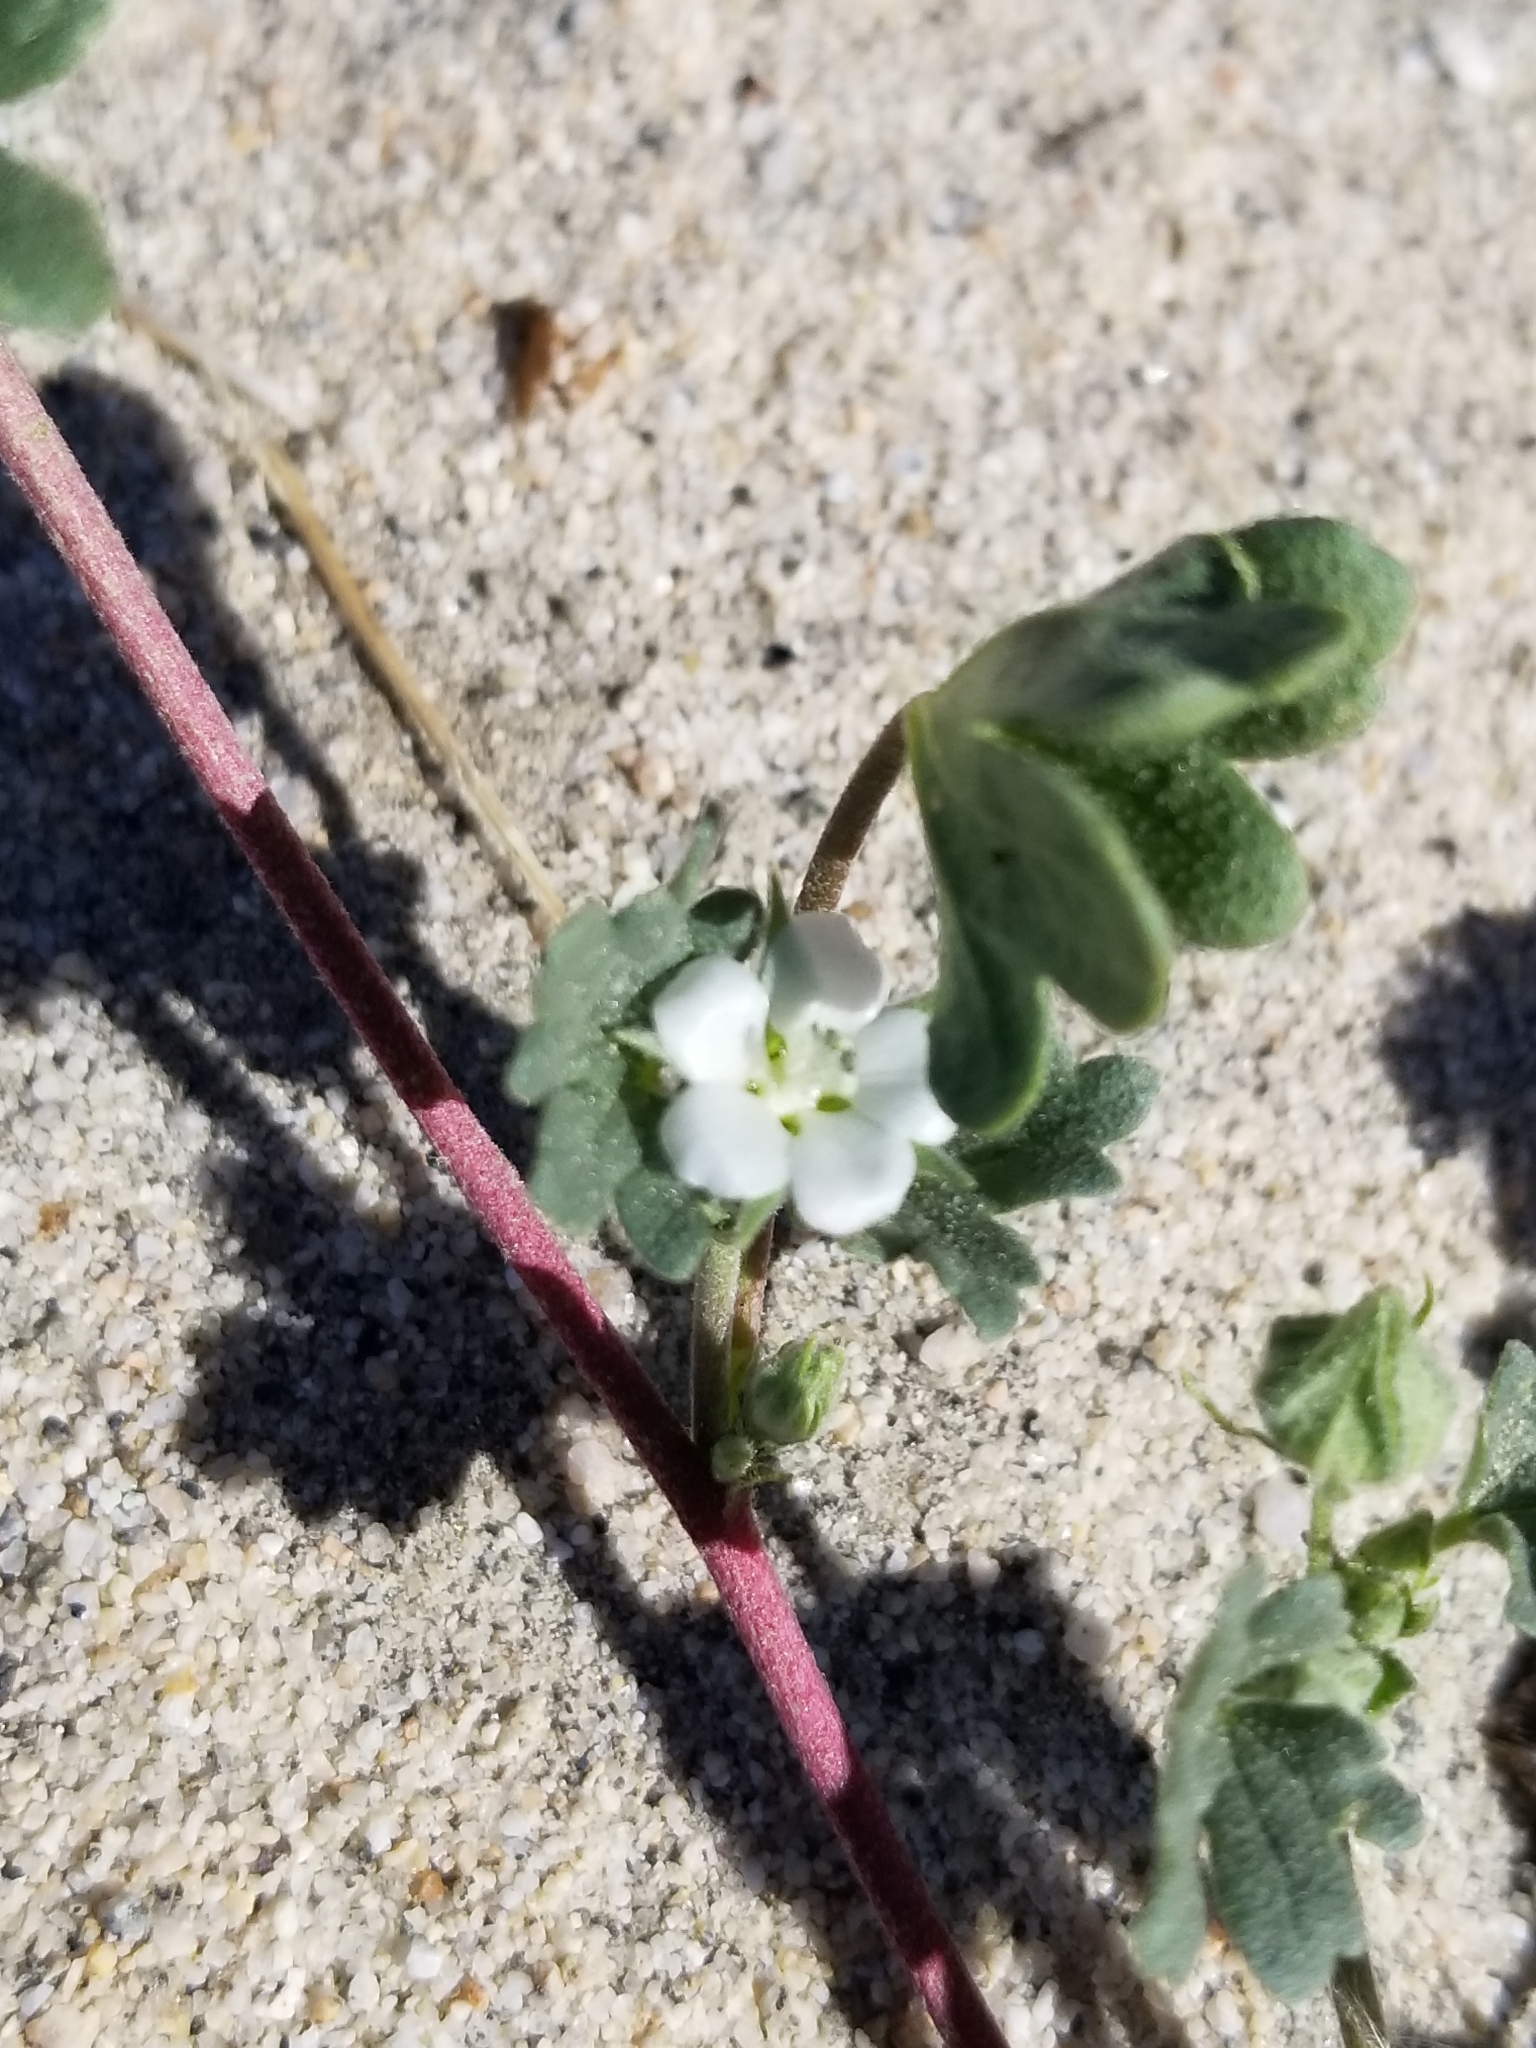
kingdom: Plantae
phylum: Tracheophyta
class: Magnoliopsida
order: Malvales
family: Malvaceae
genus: Eremalche
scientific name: Eremalche exilis
